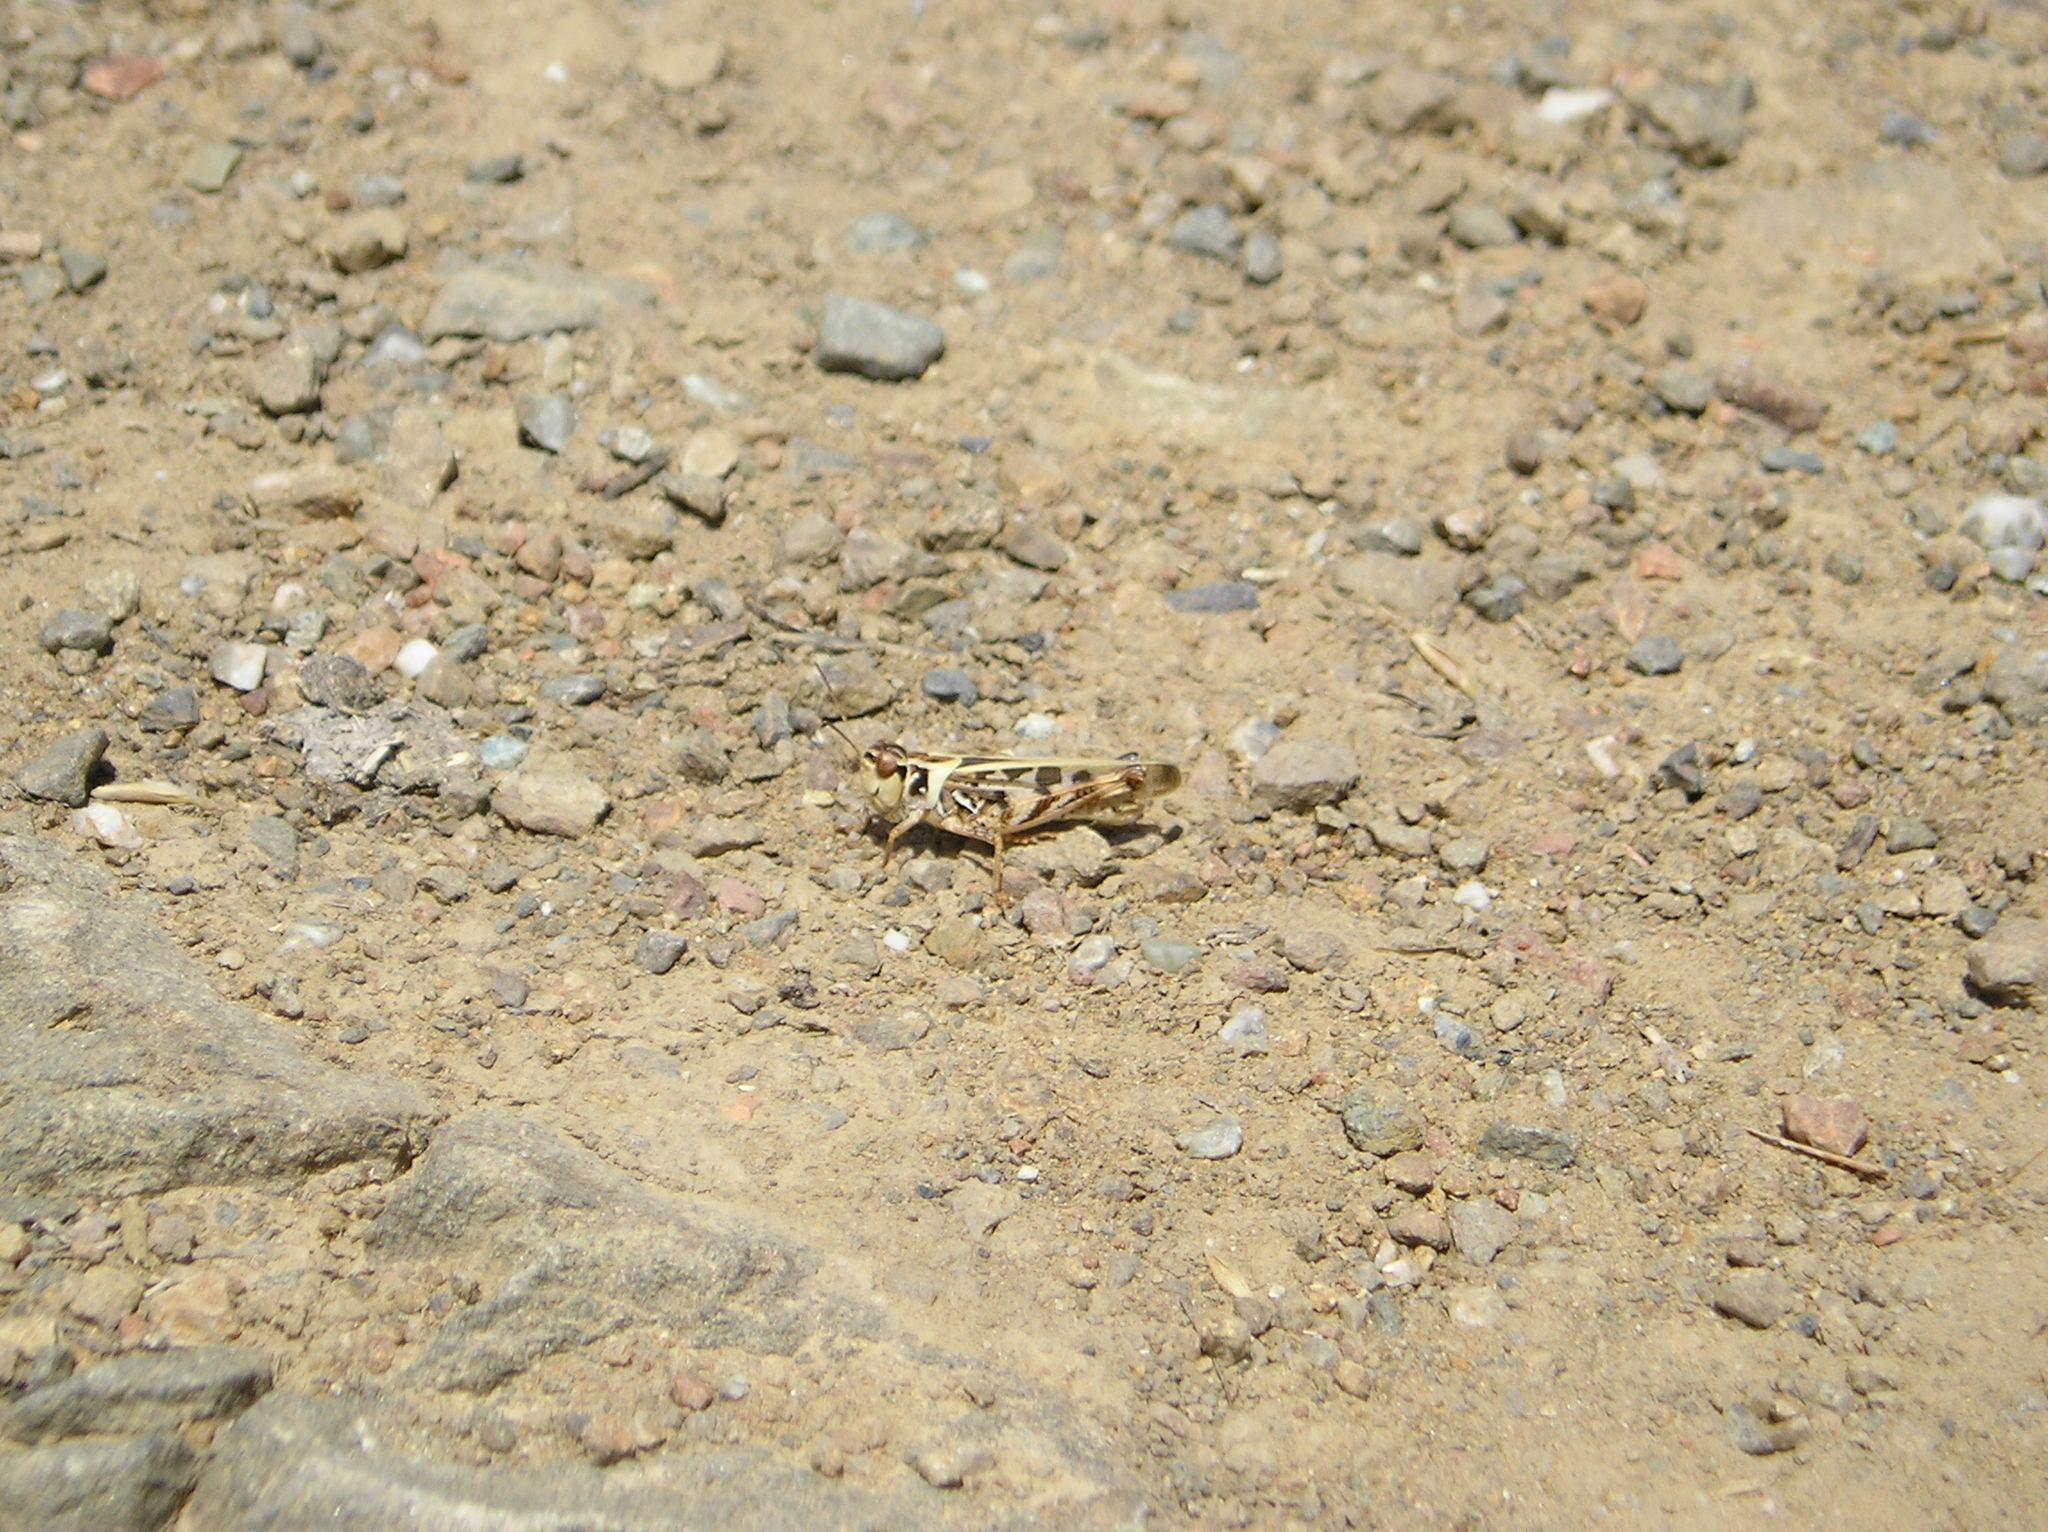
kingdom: Animalia
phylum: Arthropoda
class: Insecta
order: Orthoptera
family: Acrididae
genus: Camnula
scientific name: Camnula pellucida
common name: Clear-winged grasshopper
